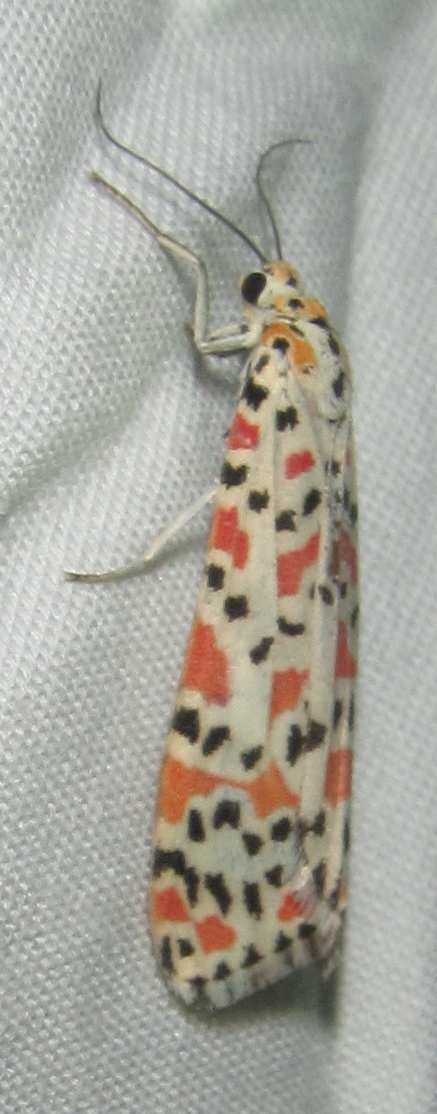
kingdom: Animalia
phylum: Arthropoda
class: Insecta
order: Lepidoptera
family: Erebidae
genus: Utetheisa
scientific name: Utetheisa lotrix
